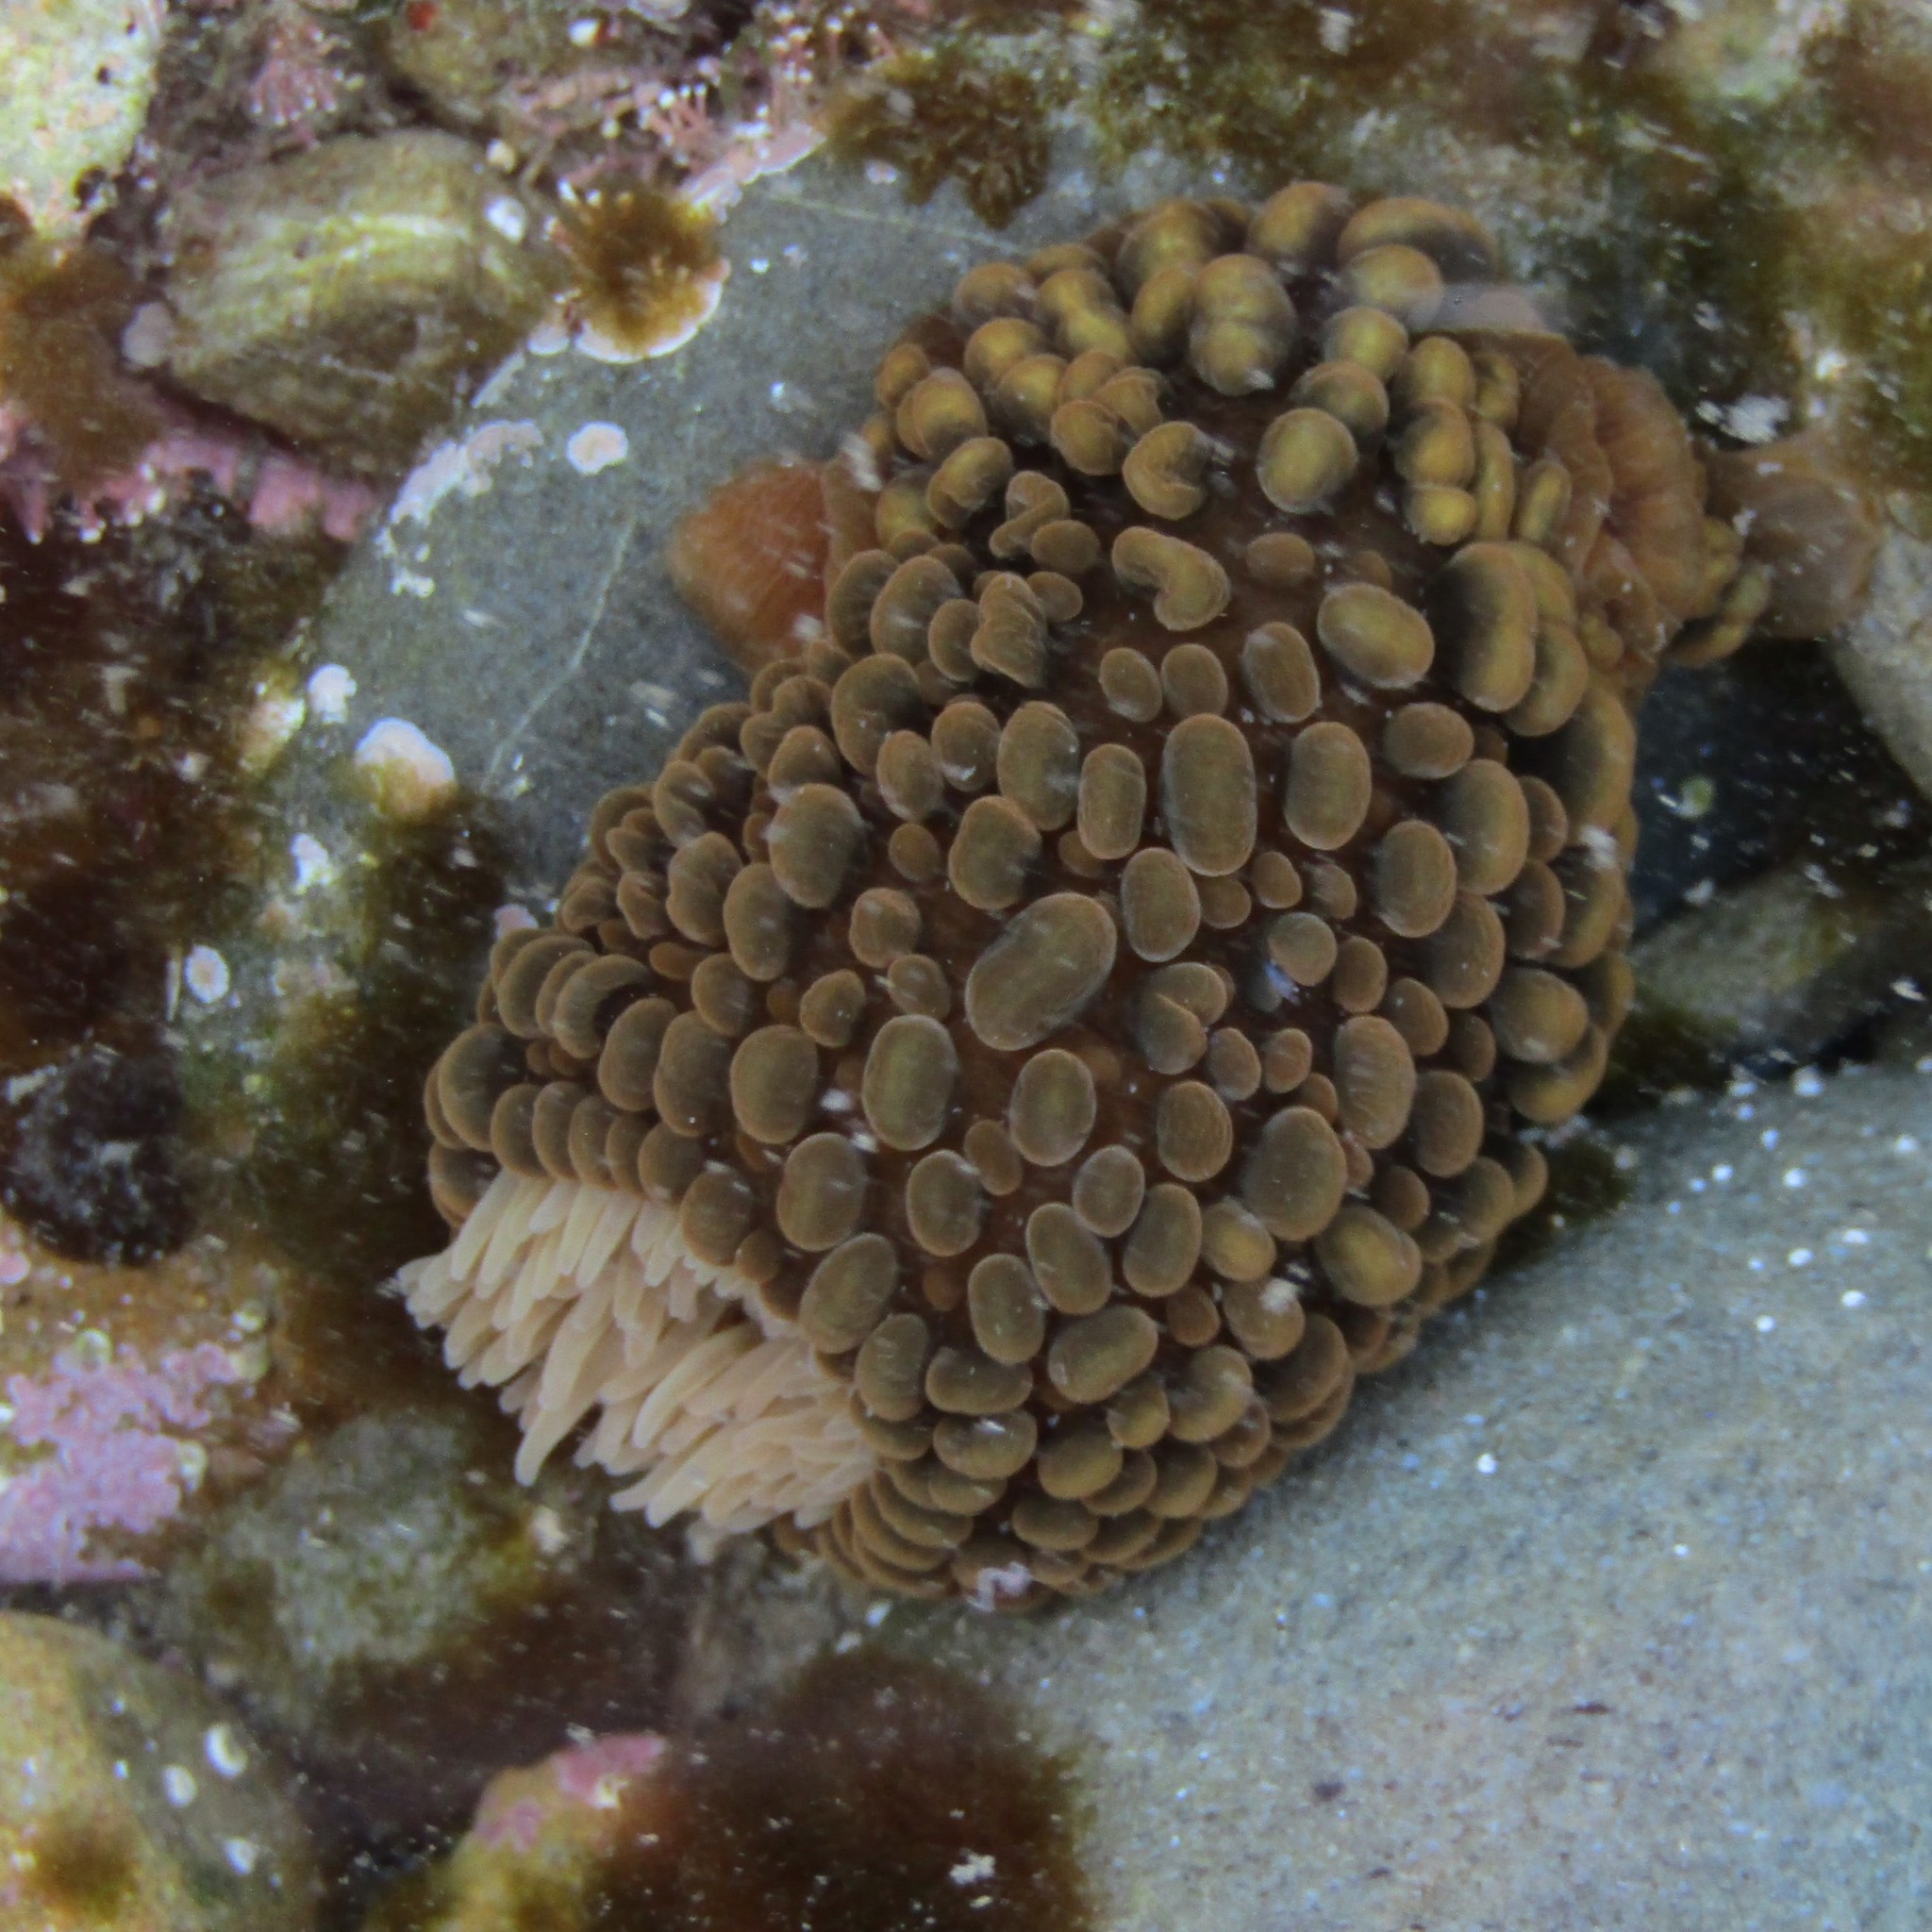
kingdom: Animalia
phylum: Cnidaria
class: Anthozoa
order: Actiniaria
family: Actiniidae
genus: Phlyctenactis
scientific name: Phlyctenactis tuberculosa
